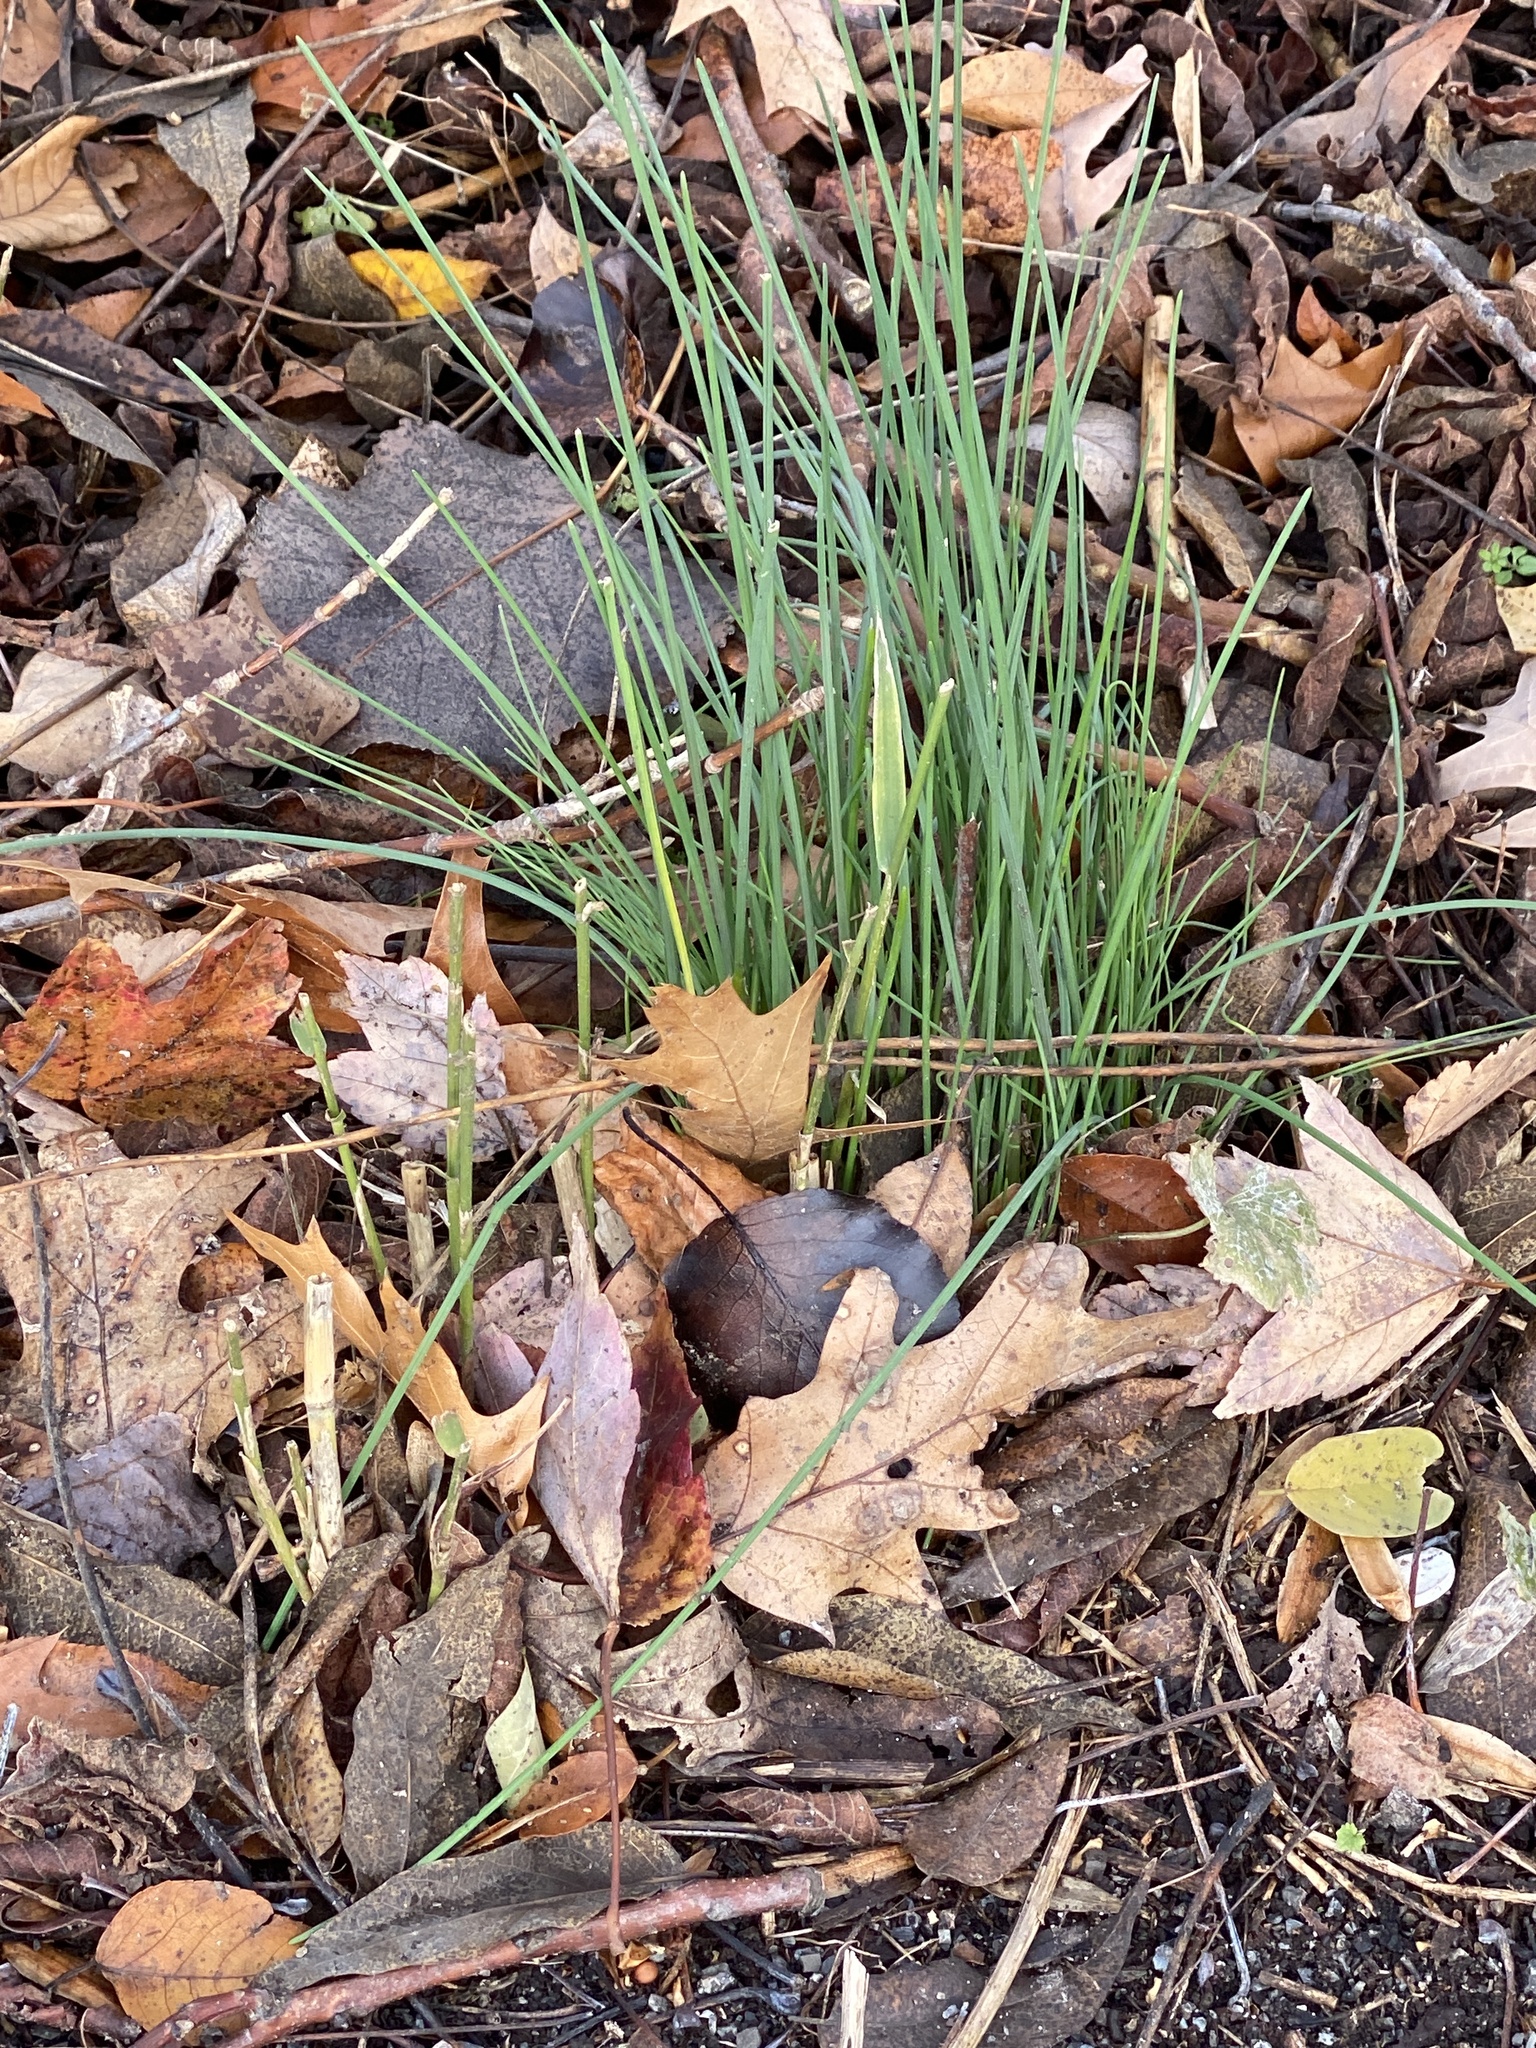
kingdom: Plantae
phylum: Tracheophyta
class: Liliopsida
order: Asparagales
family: Amaryllidaceae
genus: Allium
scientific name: Allium vineale
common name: Crow garlic
